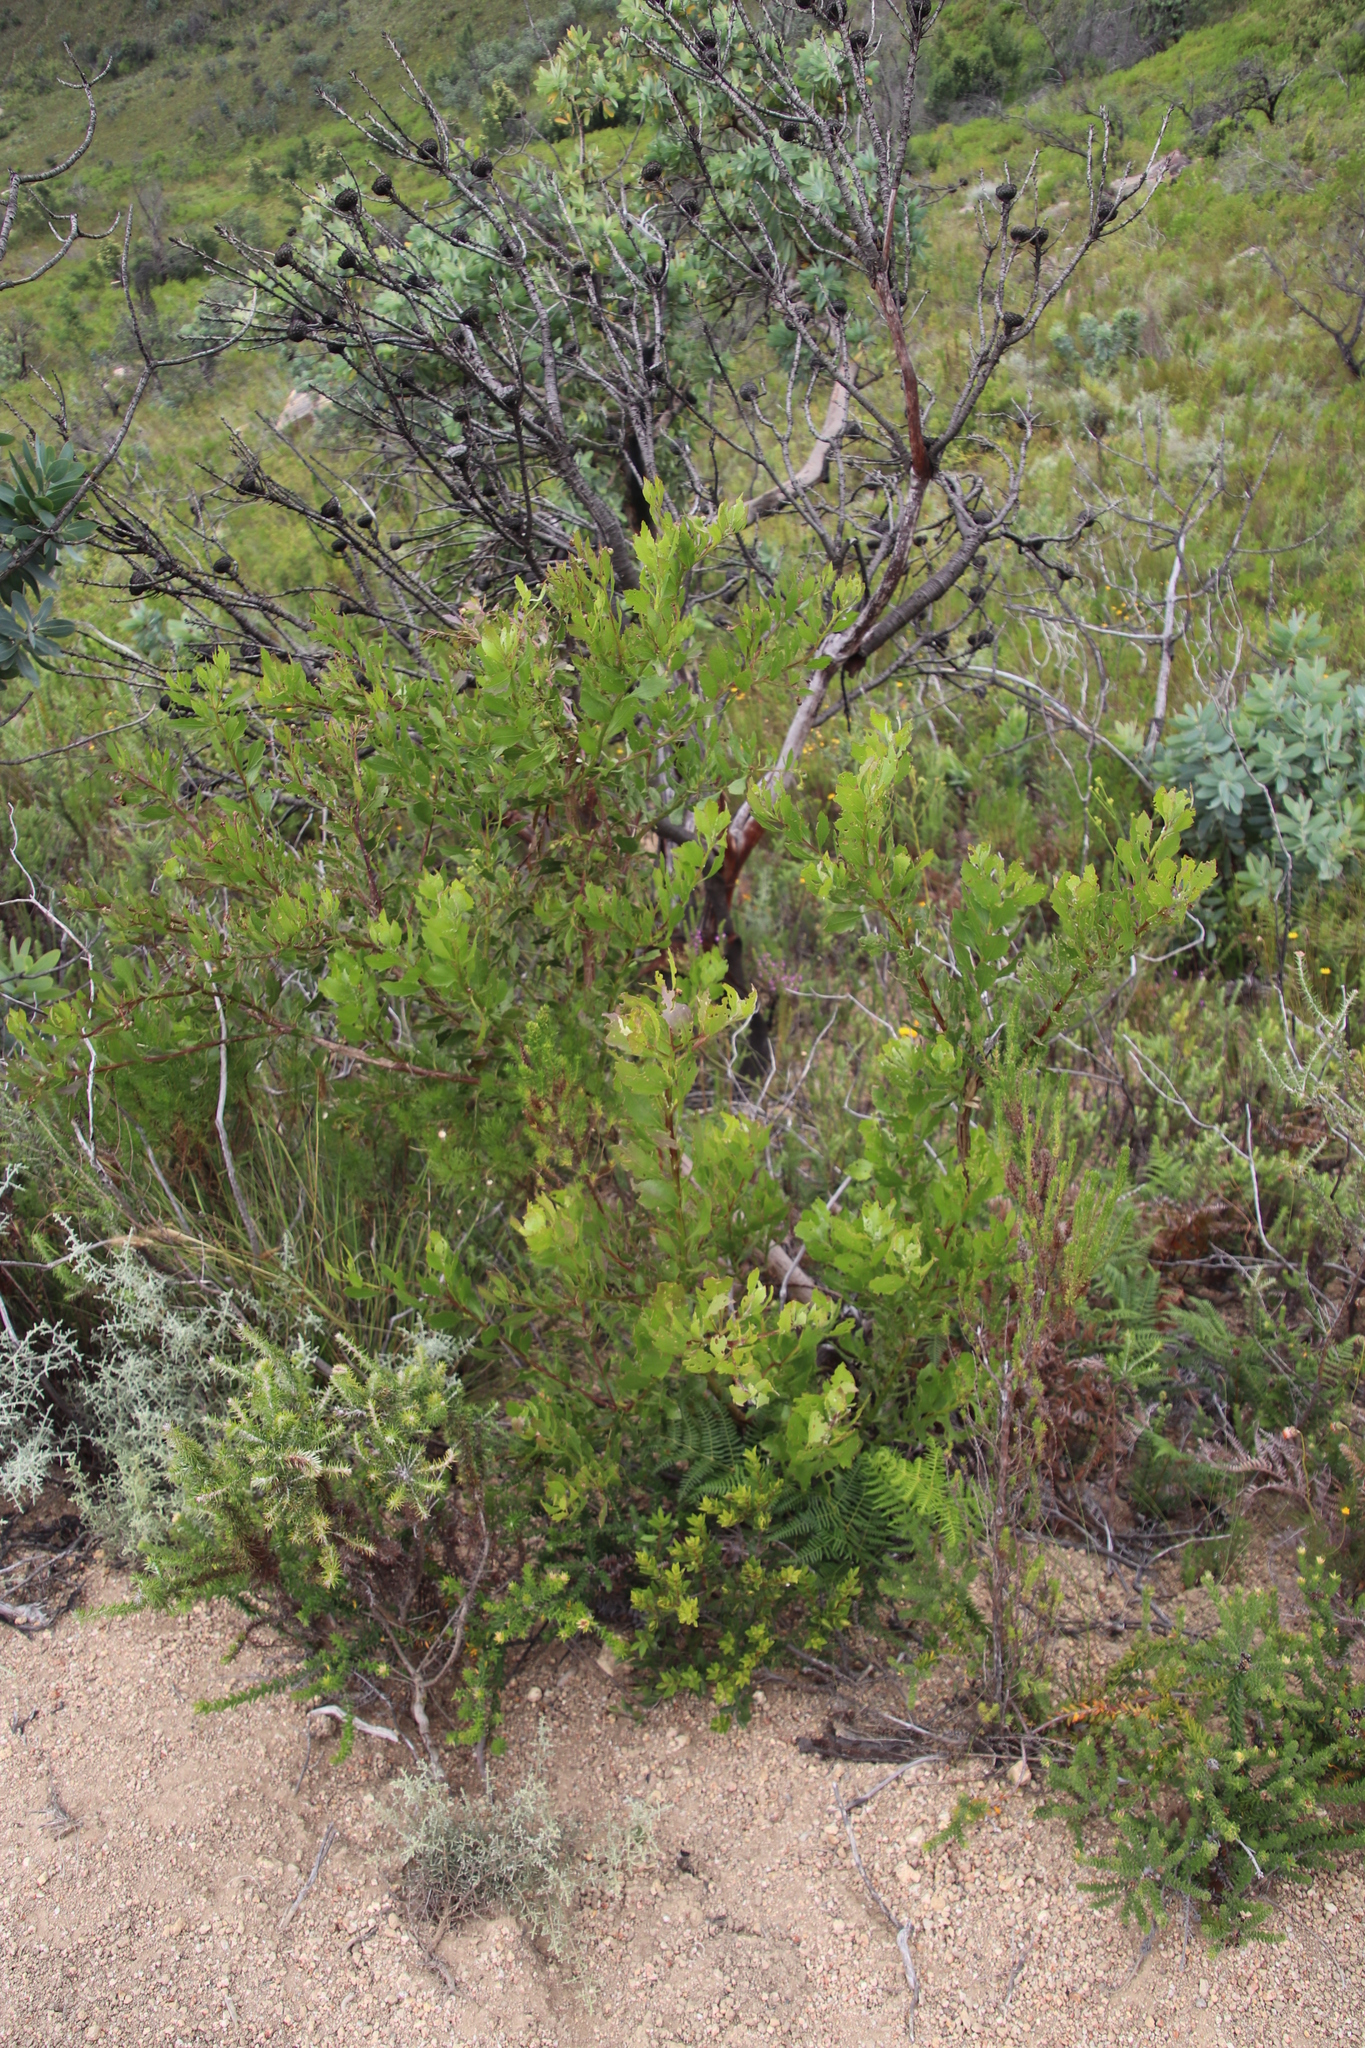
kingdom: Plantae
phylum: Tracheophyta
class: Magnoliopsida
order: Asterales
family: Asteraceae
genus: Osteospermum
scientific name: Osteospermum moniliferum
